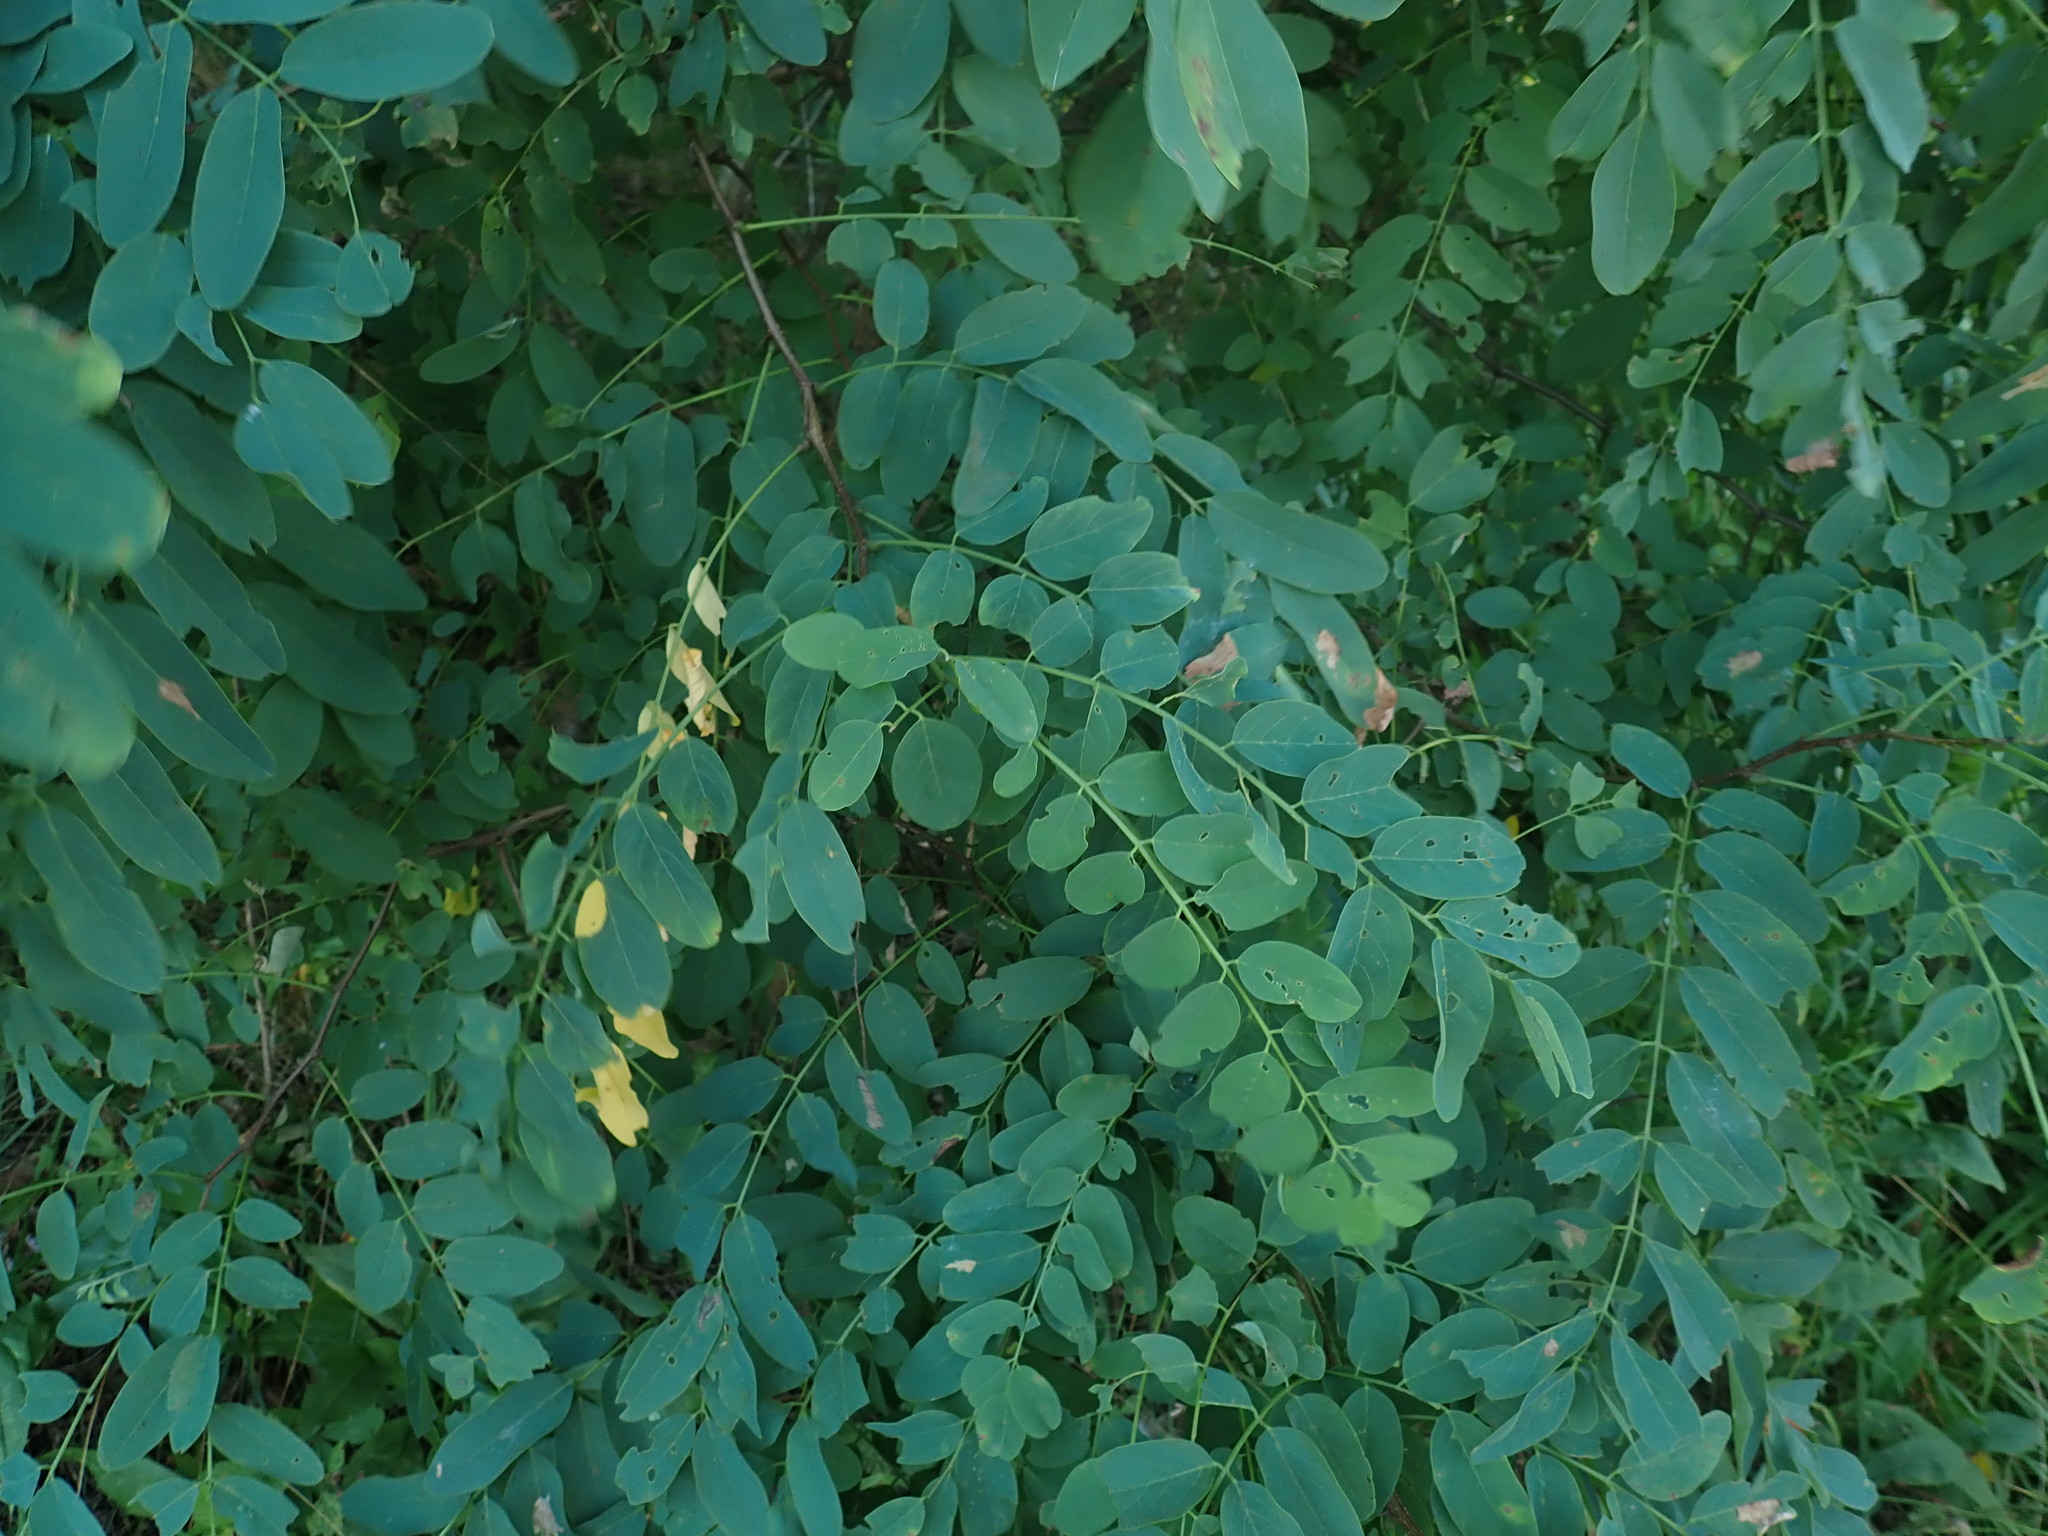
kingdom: Plantae
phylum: Tracheophyta
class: Magnoliopsida
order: Fabales
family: Fabaceae
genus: Robinia
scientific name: Robinia pseudoacacia
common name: Black locust
